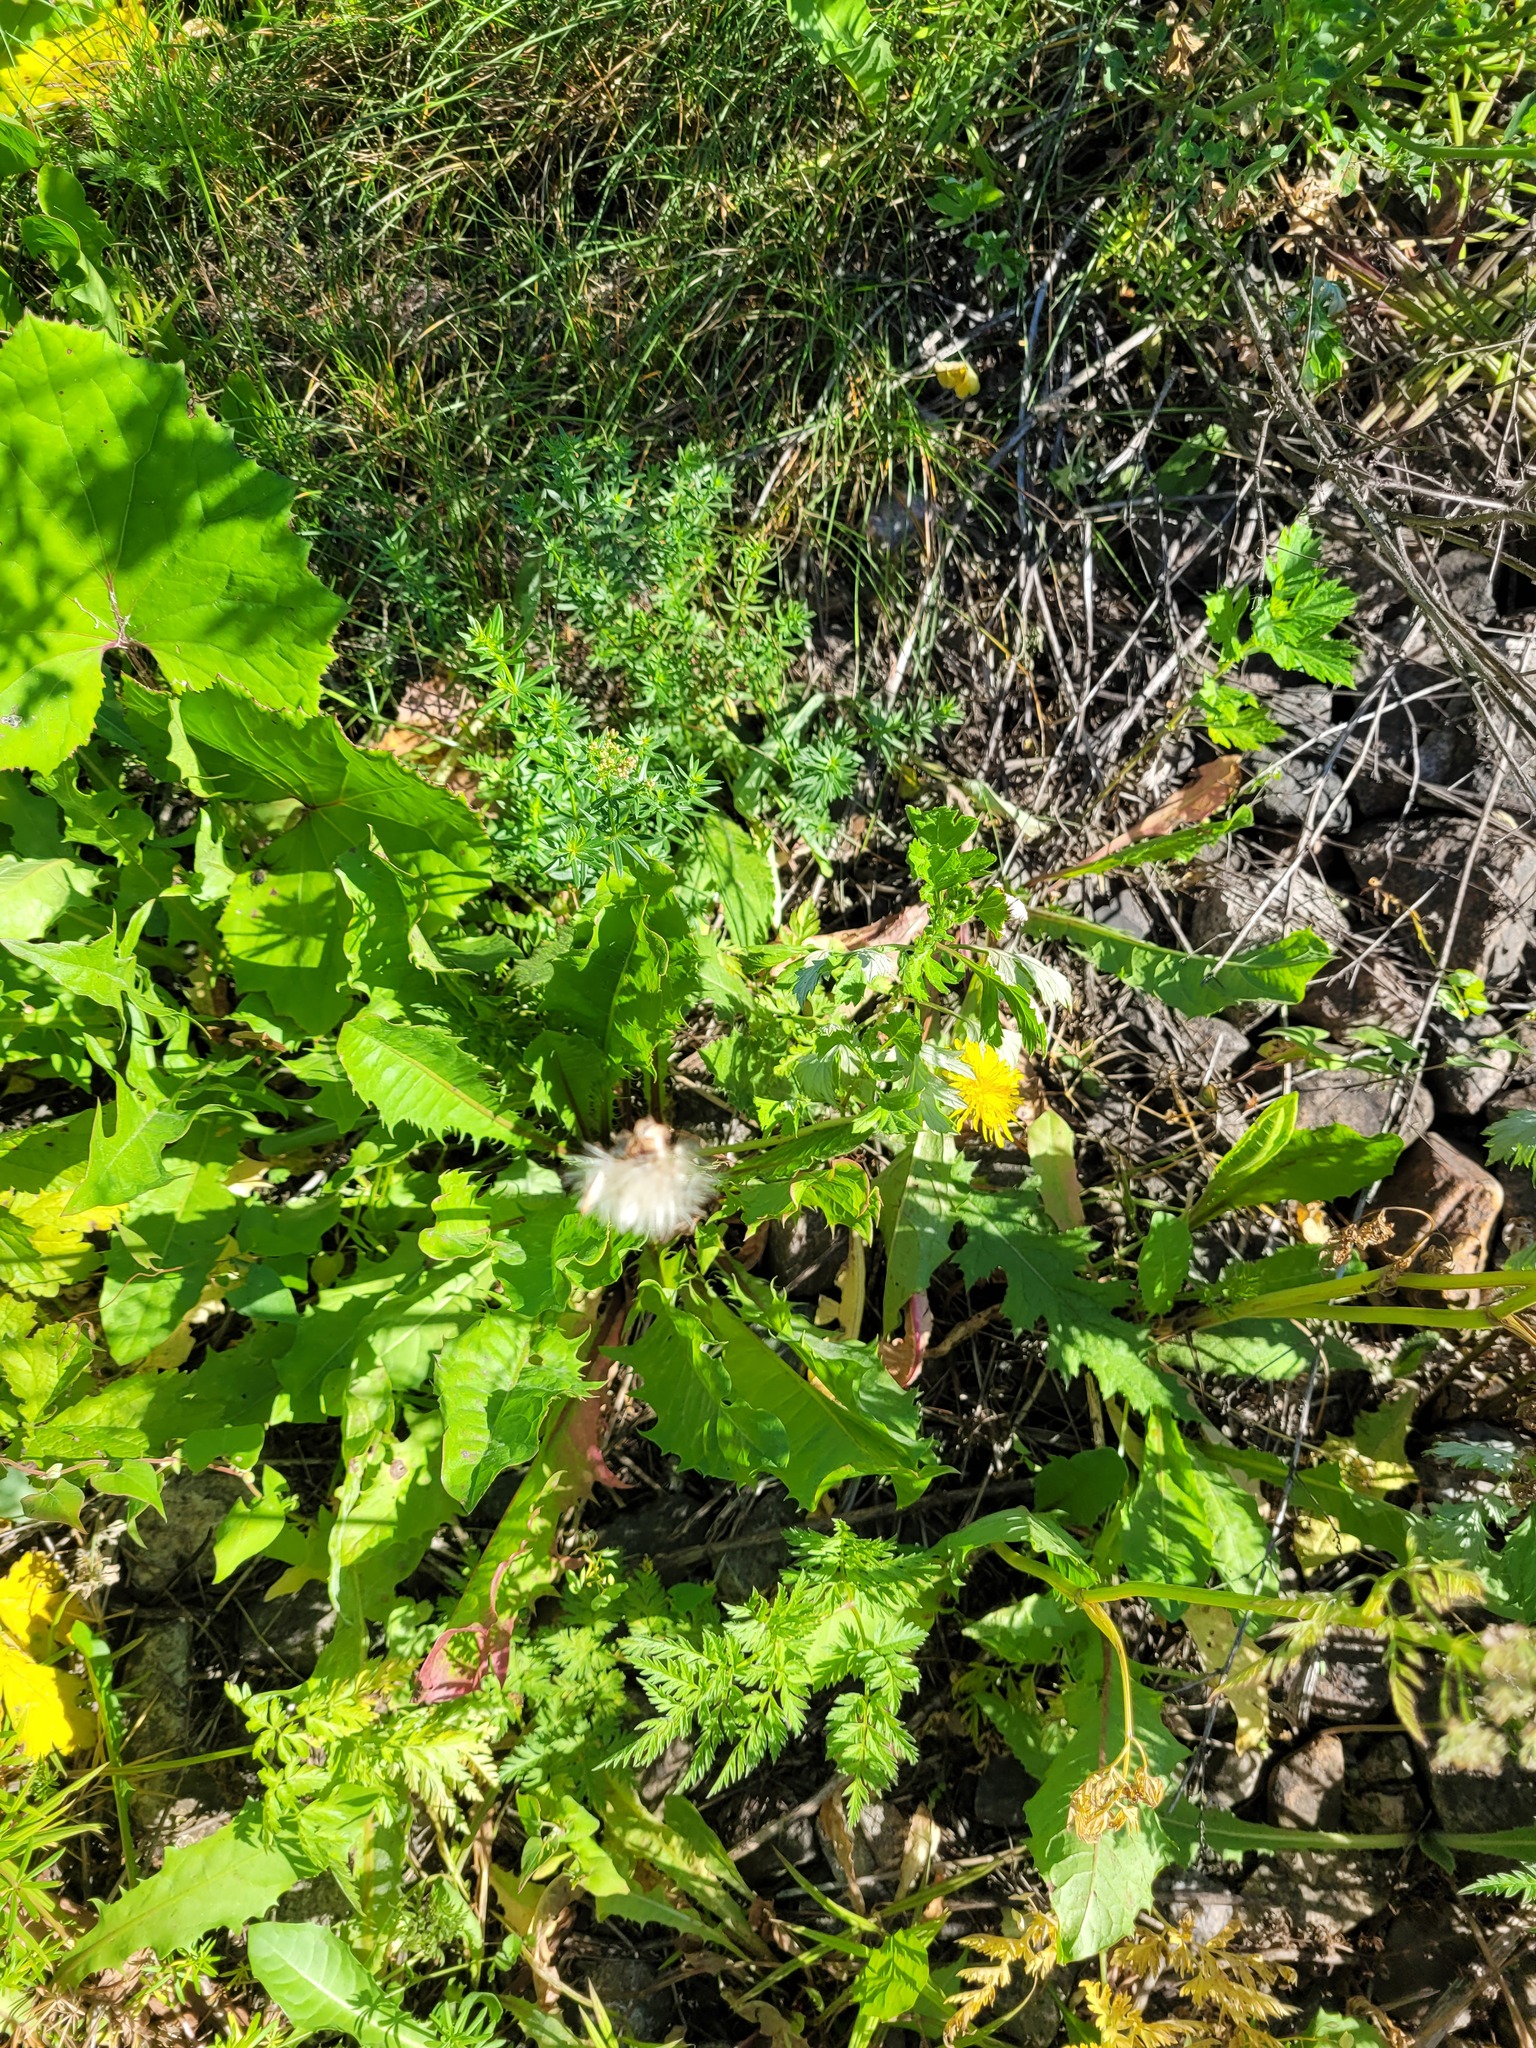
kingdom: Plantae
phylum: Tracheophyta
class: Magnoliopsida
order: Asterales
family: Asteraceae
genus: Taraxacum
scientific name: Taraxacum officinale
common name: Common dandelion
